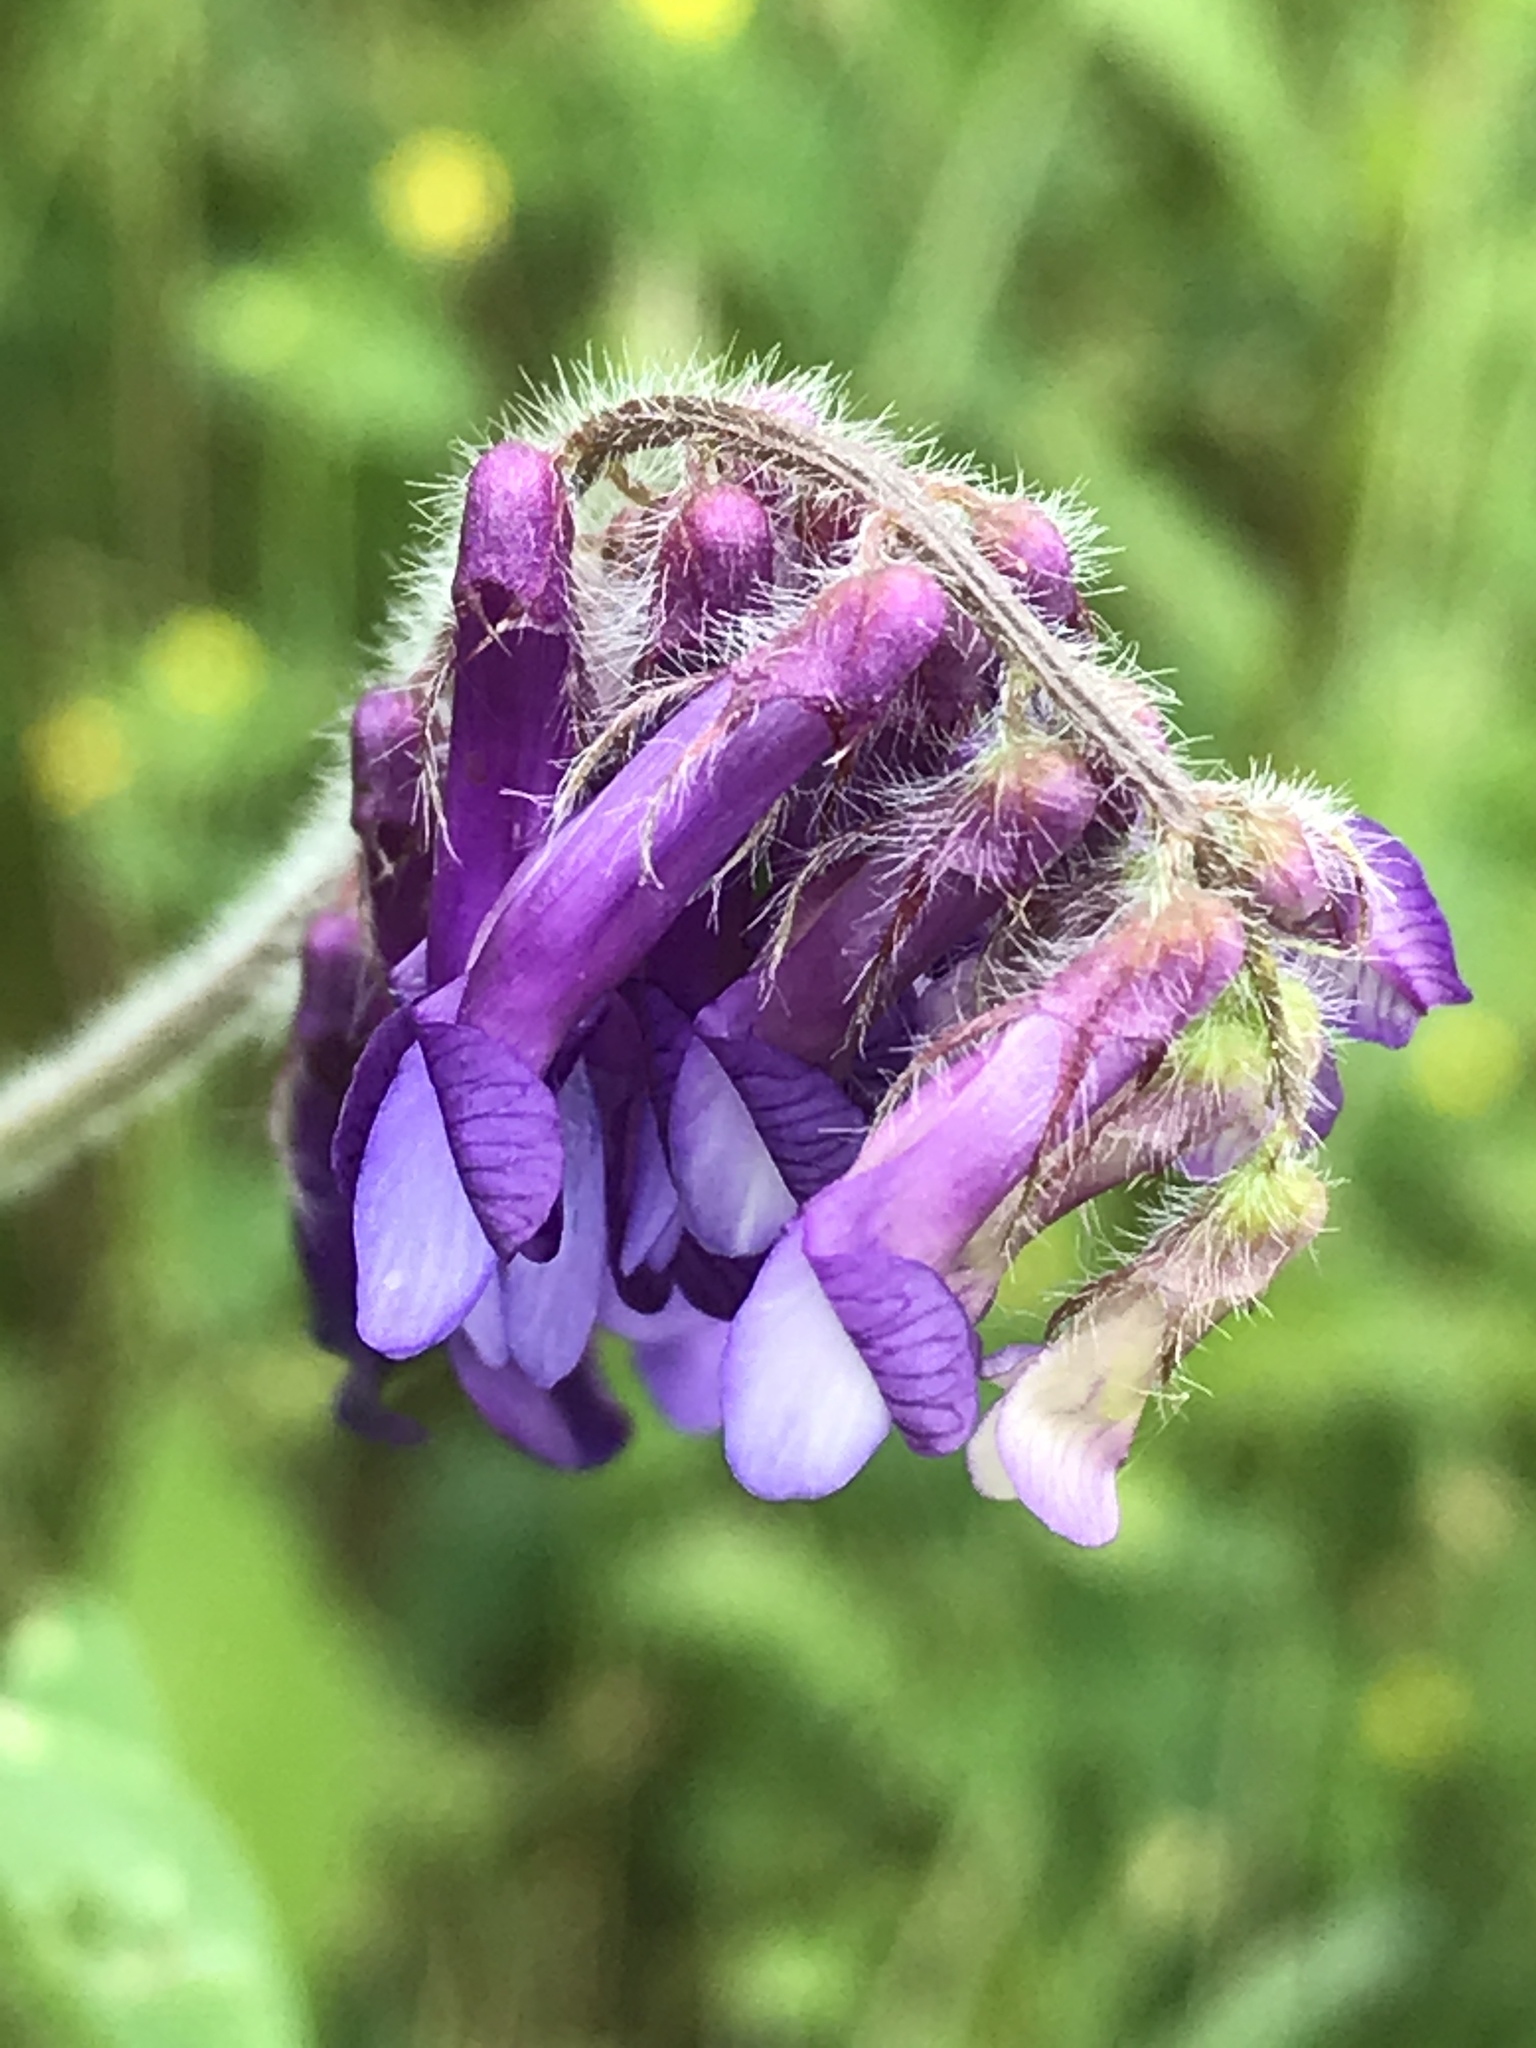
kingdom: Plantae
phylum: Tracheophyta
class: Magnoliopsida
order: Fabales
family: Fabaceae
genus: Vicia
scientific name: Vicia villosa
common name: Fodder vetch
